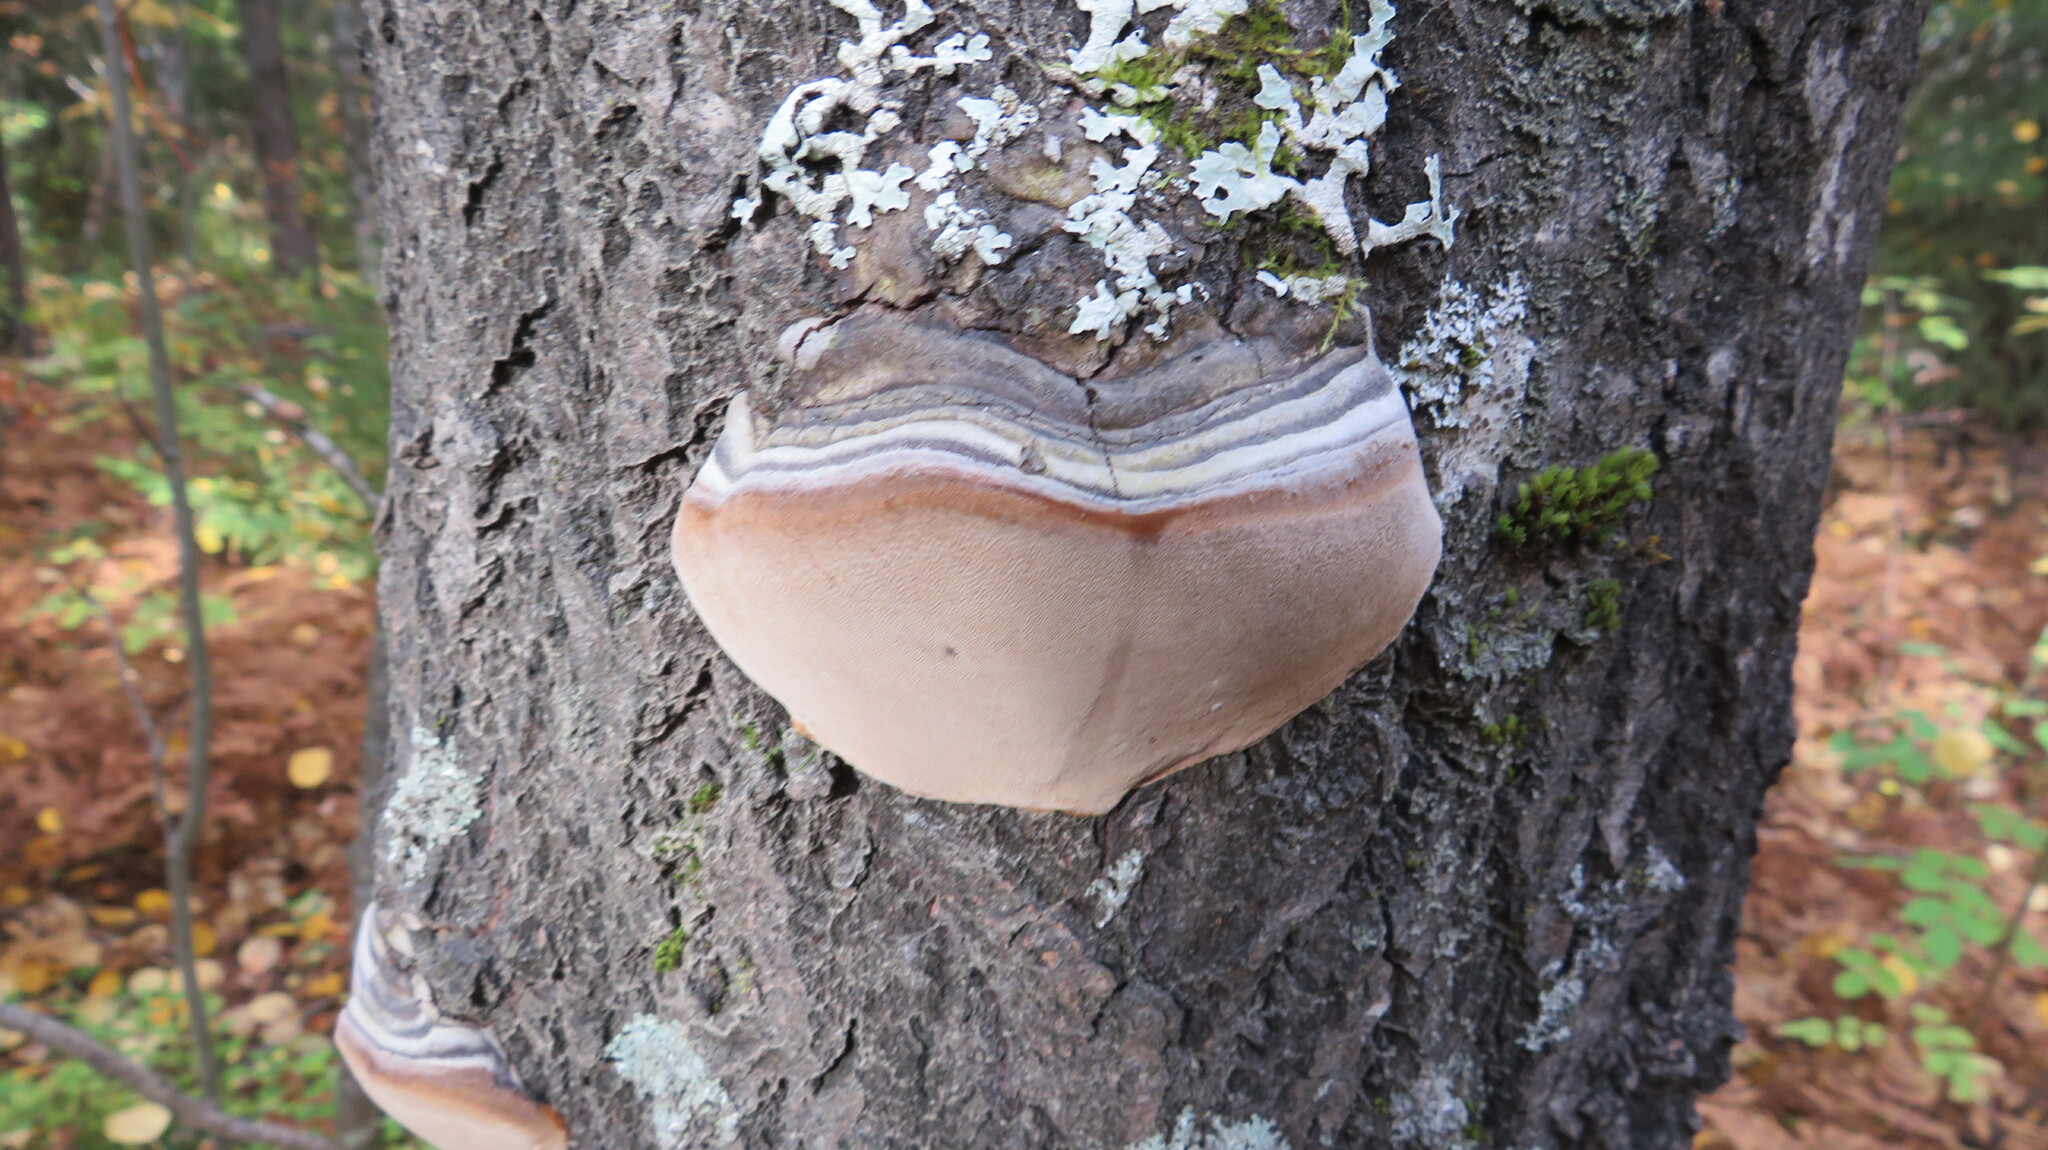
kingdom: Fungi
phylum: Basidiomycota
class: Agaricomycetes
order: Hymenochaetales
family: Hymenochaetaceae
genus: Phellinus
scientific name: Phellinus tremulae
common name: Aspen bracket
